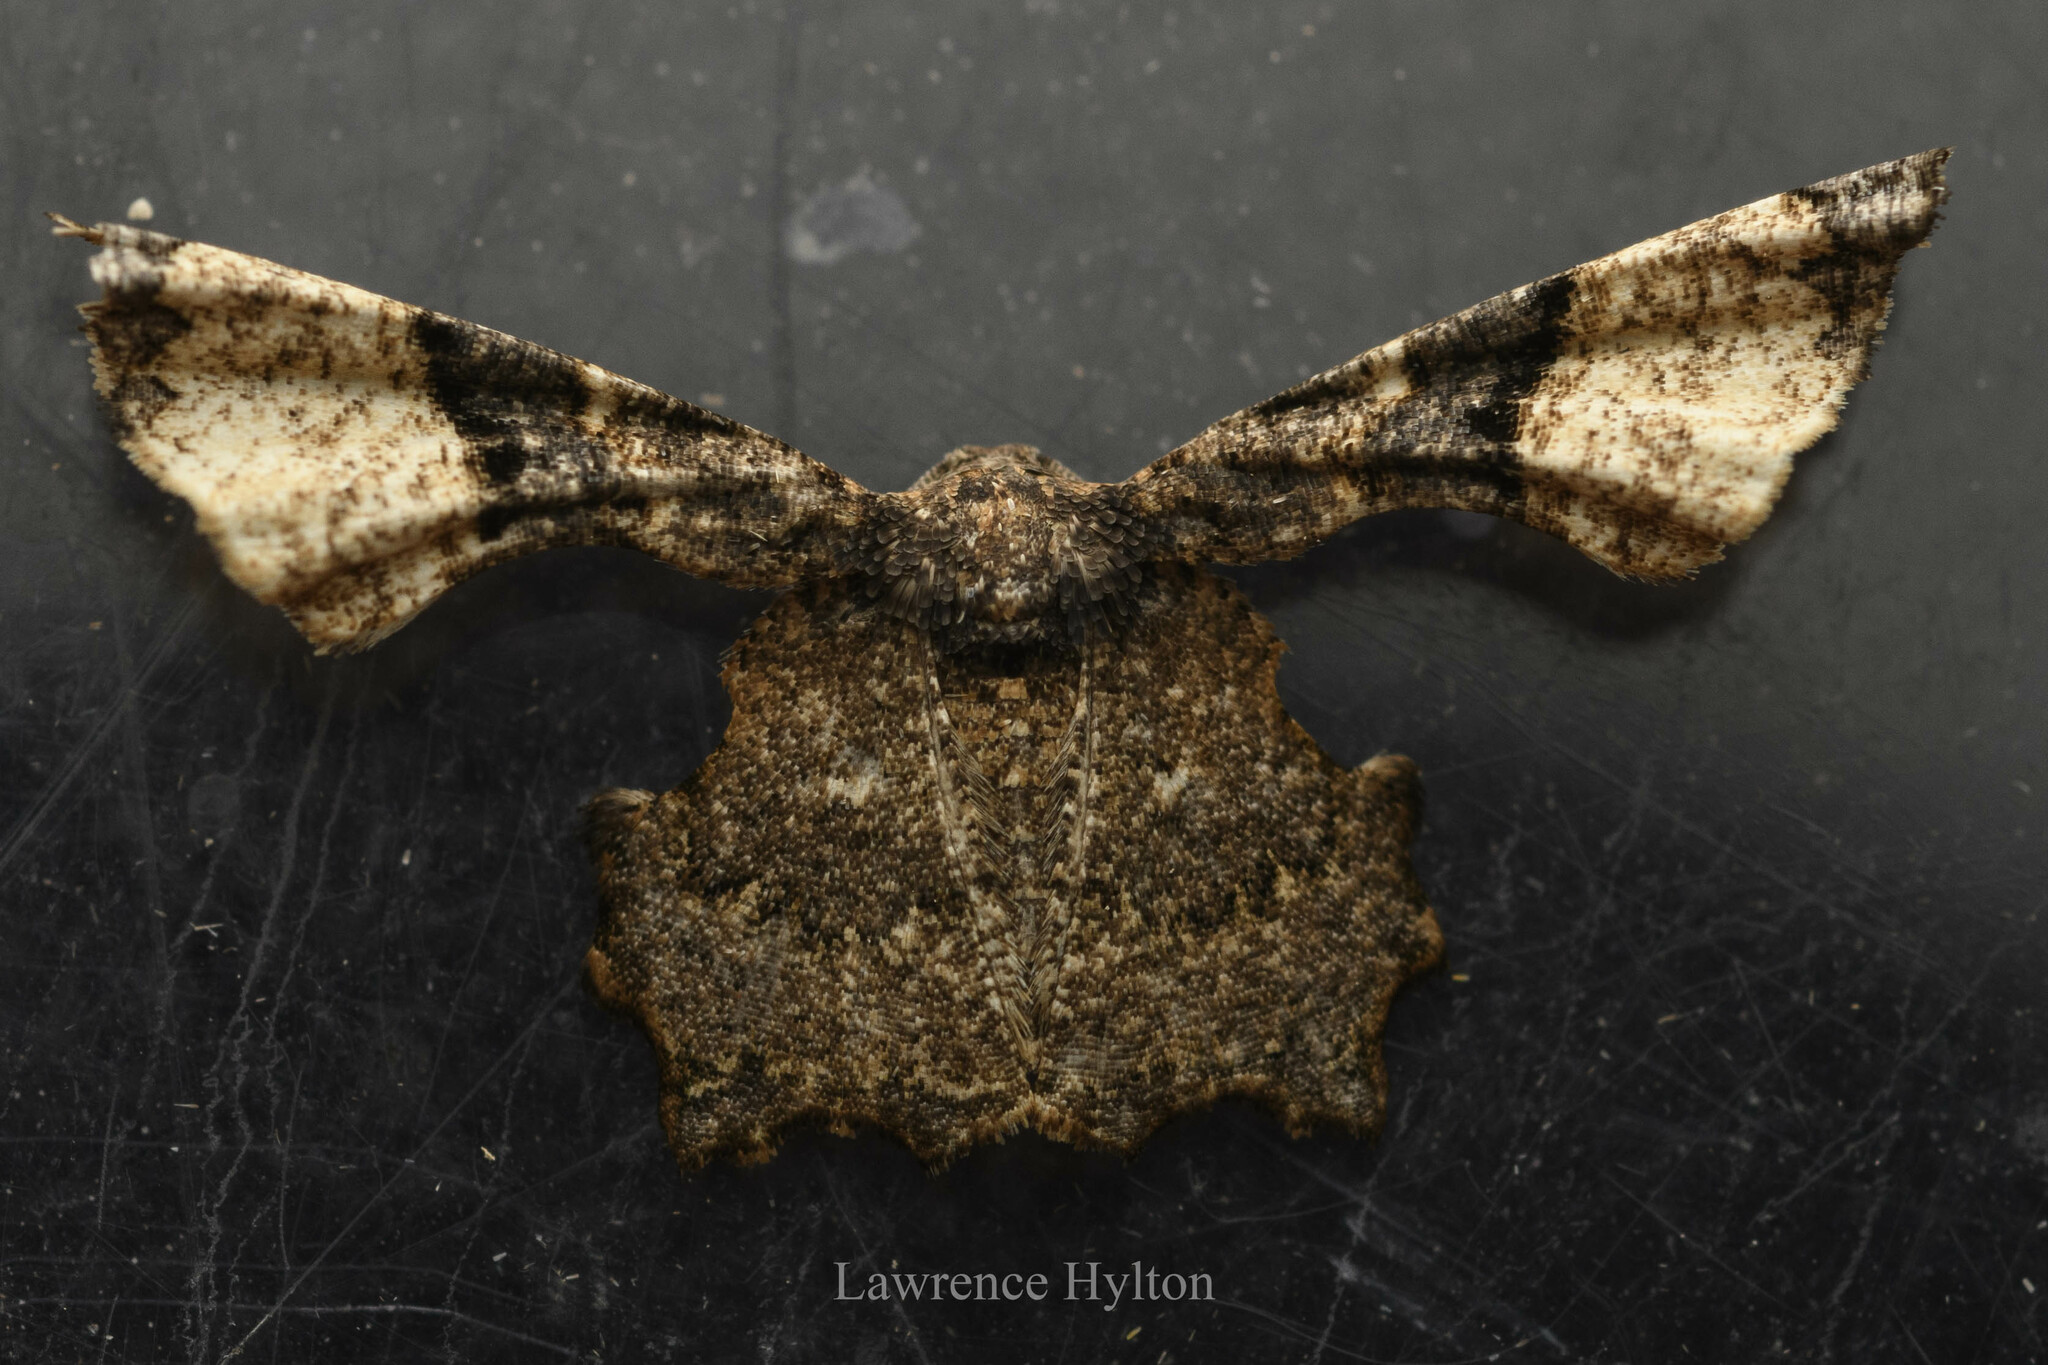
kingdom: Animalia
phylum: Arthropoda
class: Insecta
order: Lepidoptera
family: Uraniidae
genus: Gathynia
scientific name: Gathynia pernigrata
